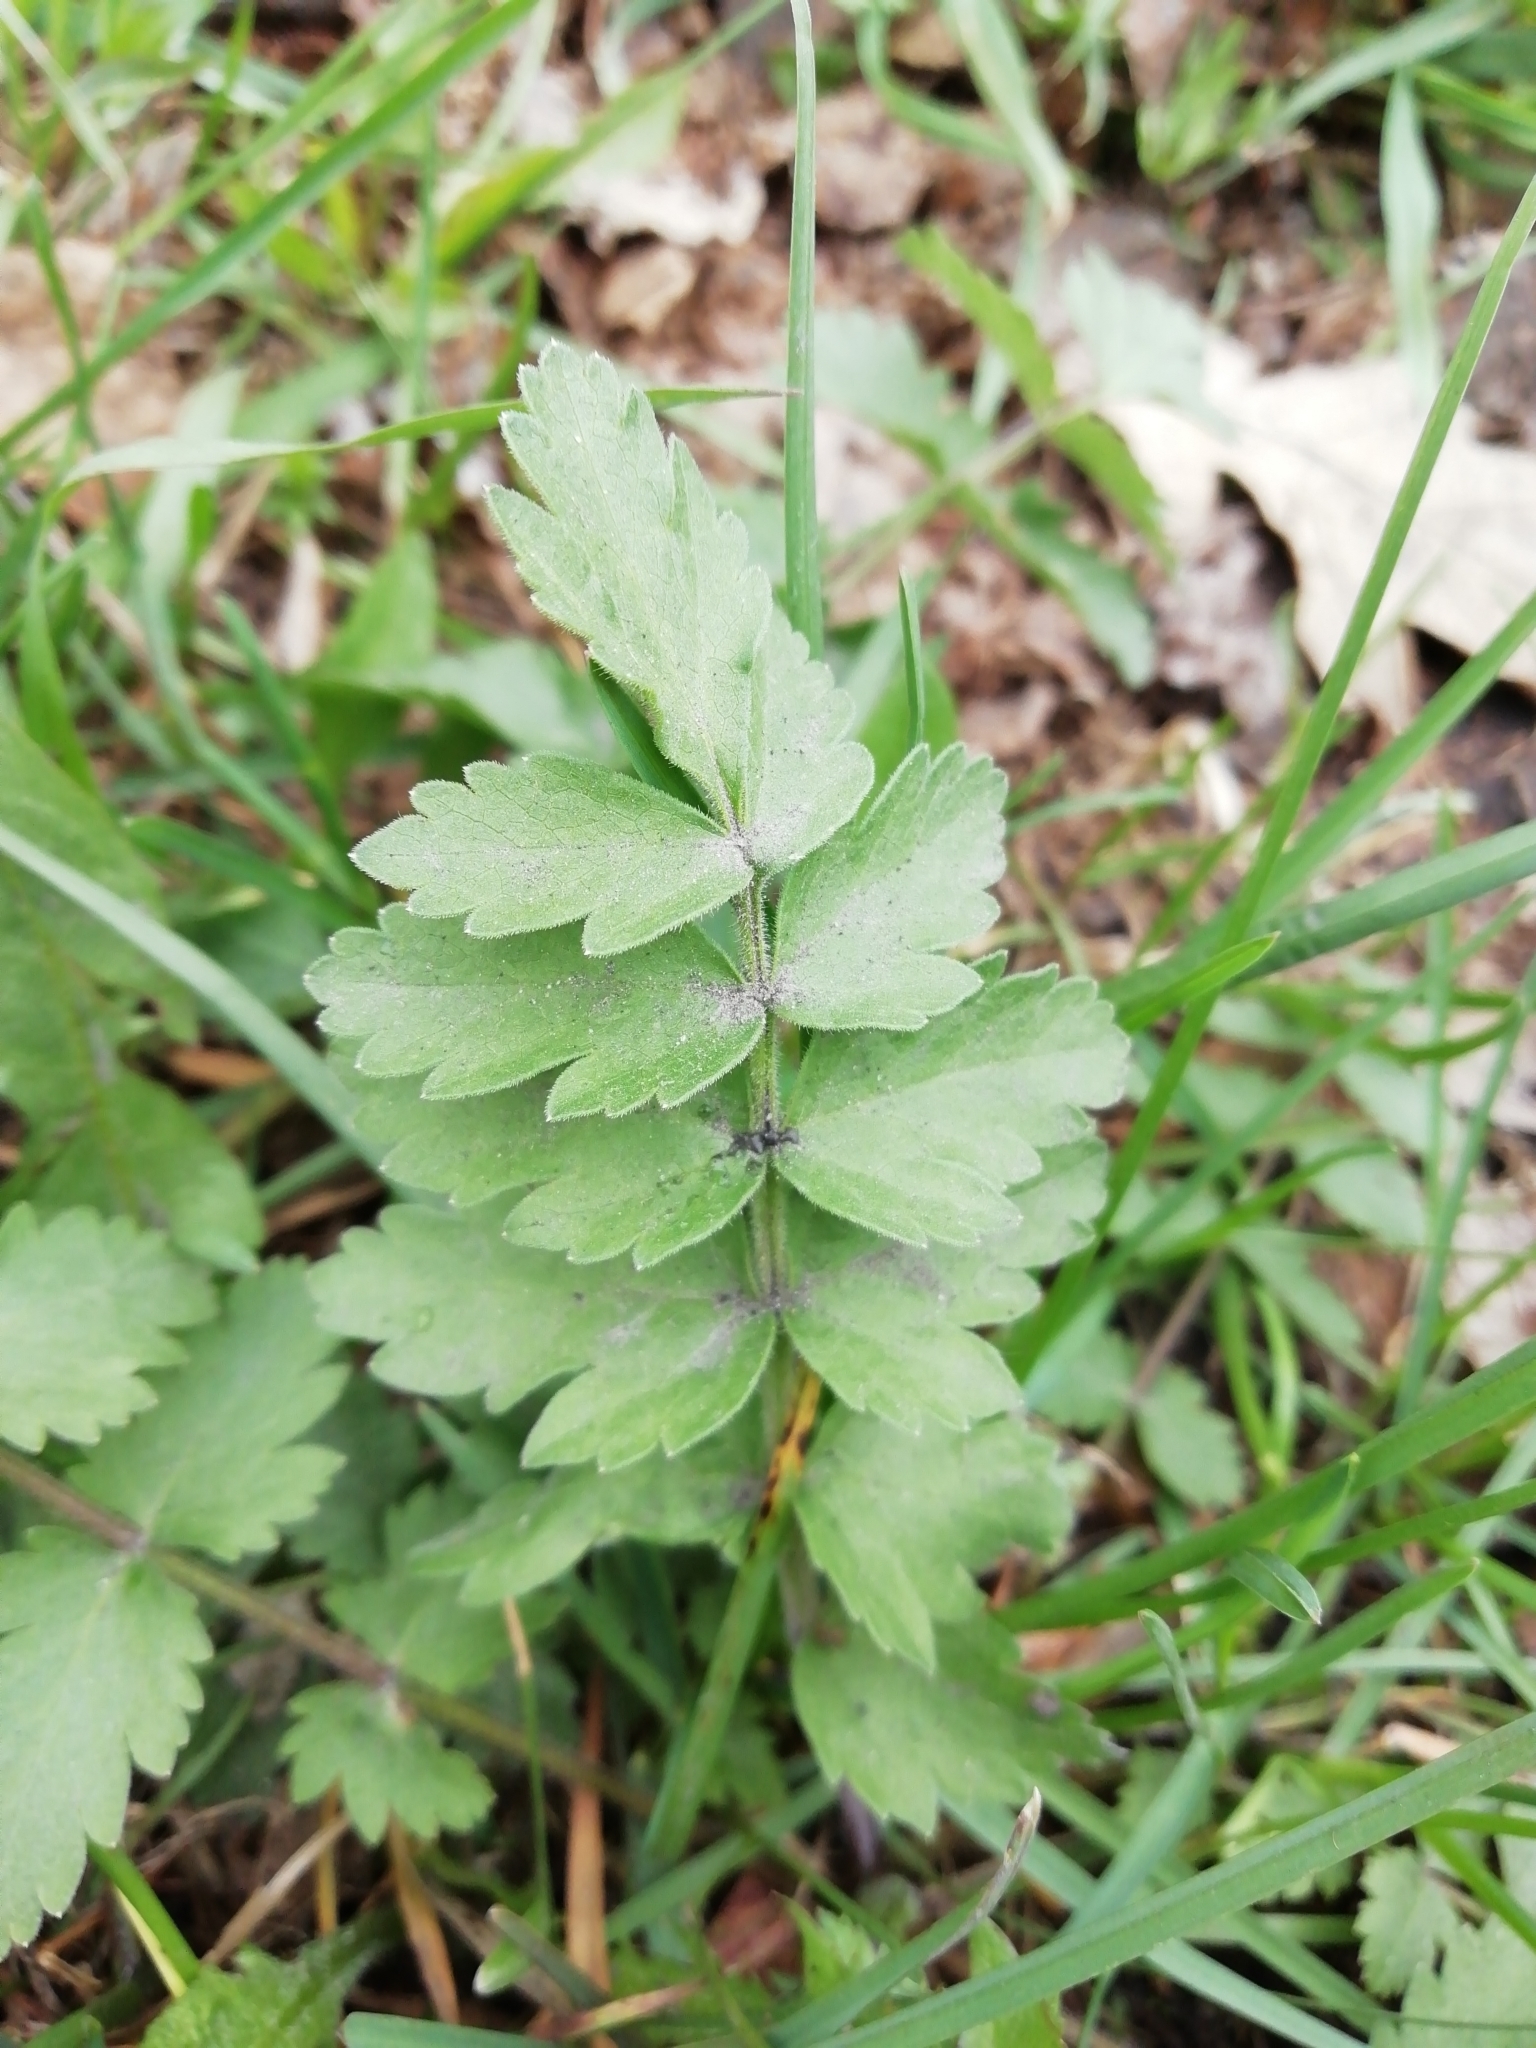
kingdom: Plantae
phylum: Tracheophyta
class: Magnoliopsida
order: Apiales
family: Apiaceae
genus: Pastinaca
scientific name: Pastinaca sativa
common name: Wild parsnip
